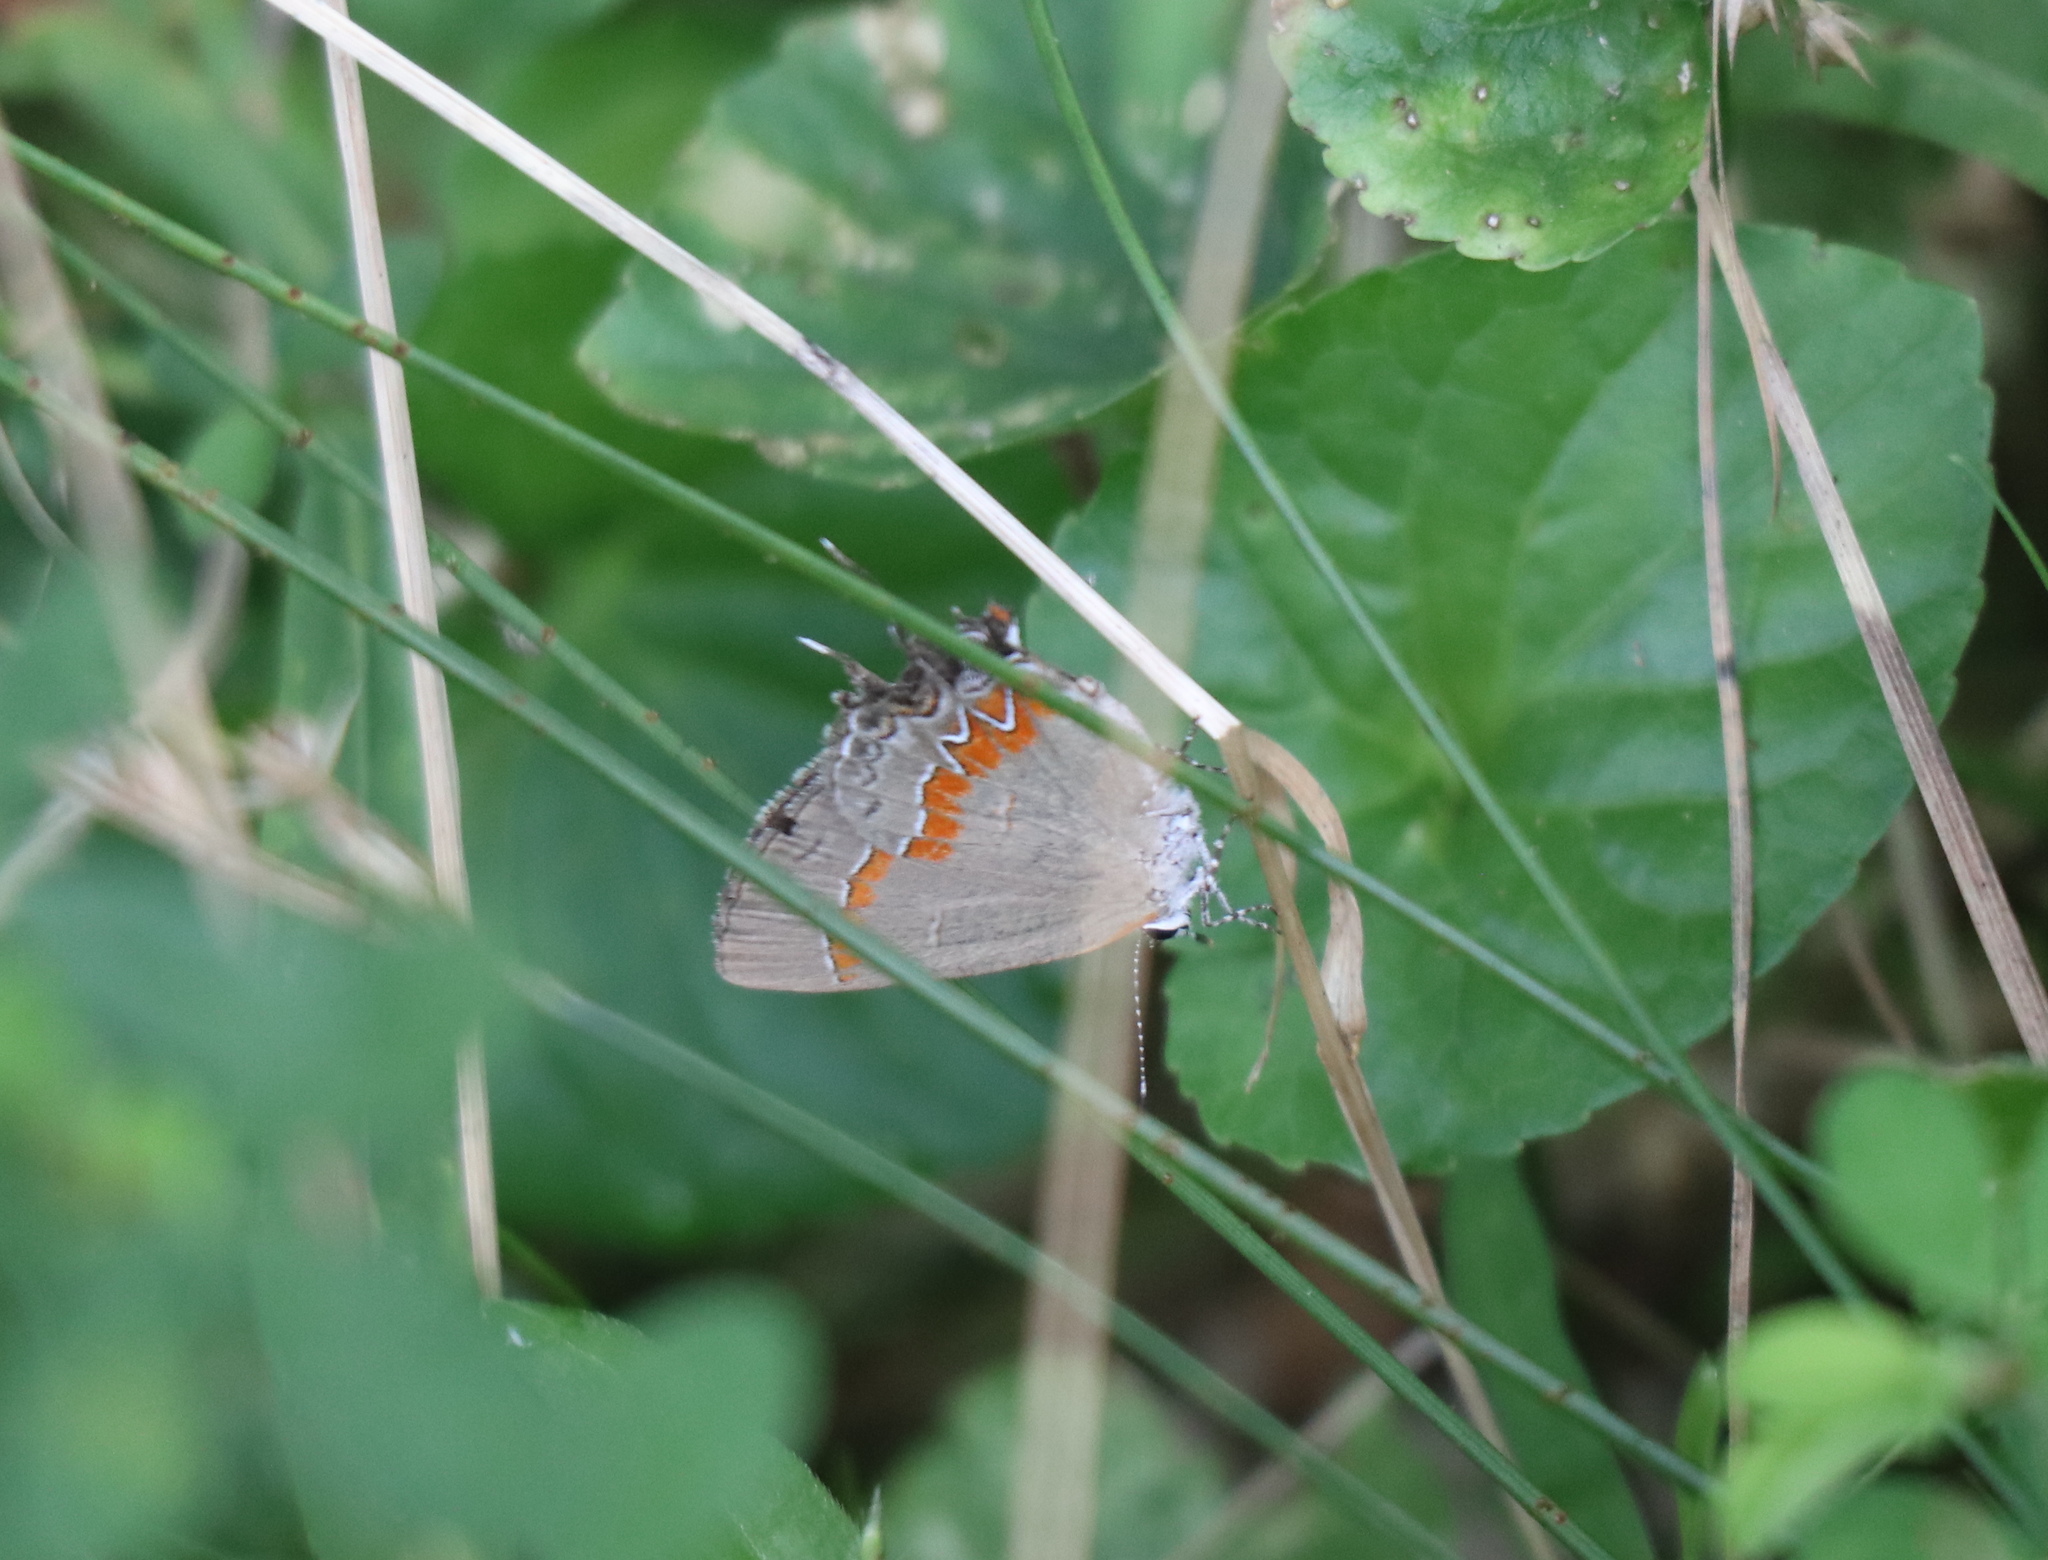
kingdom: Animalia
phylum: Arthropoda
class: Insecta
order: Lepidoptera
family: Lycaenidae
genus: Calycopis
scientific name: Calycopis cecrops
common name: Red-banded hairstreak
